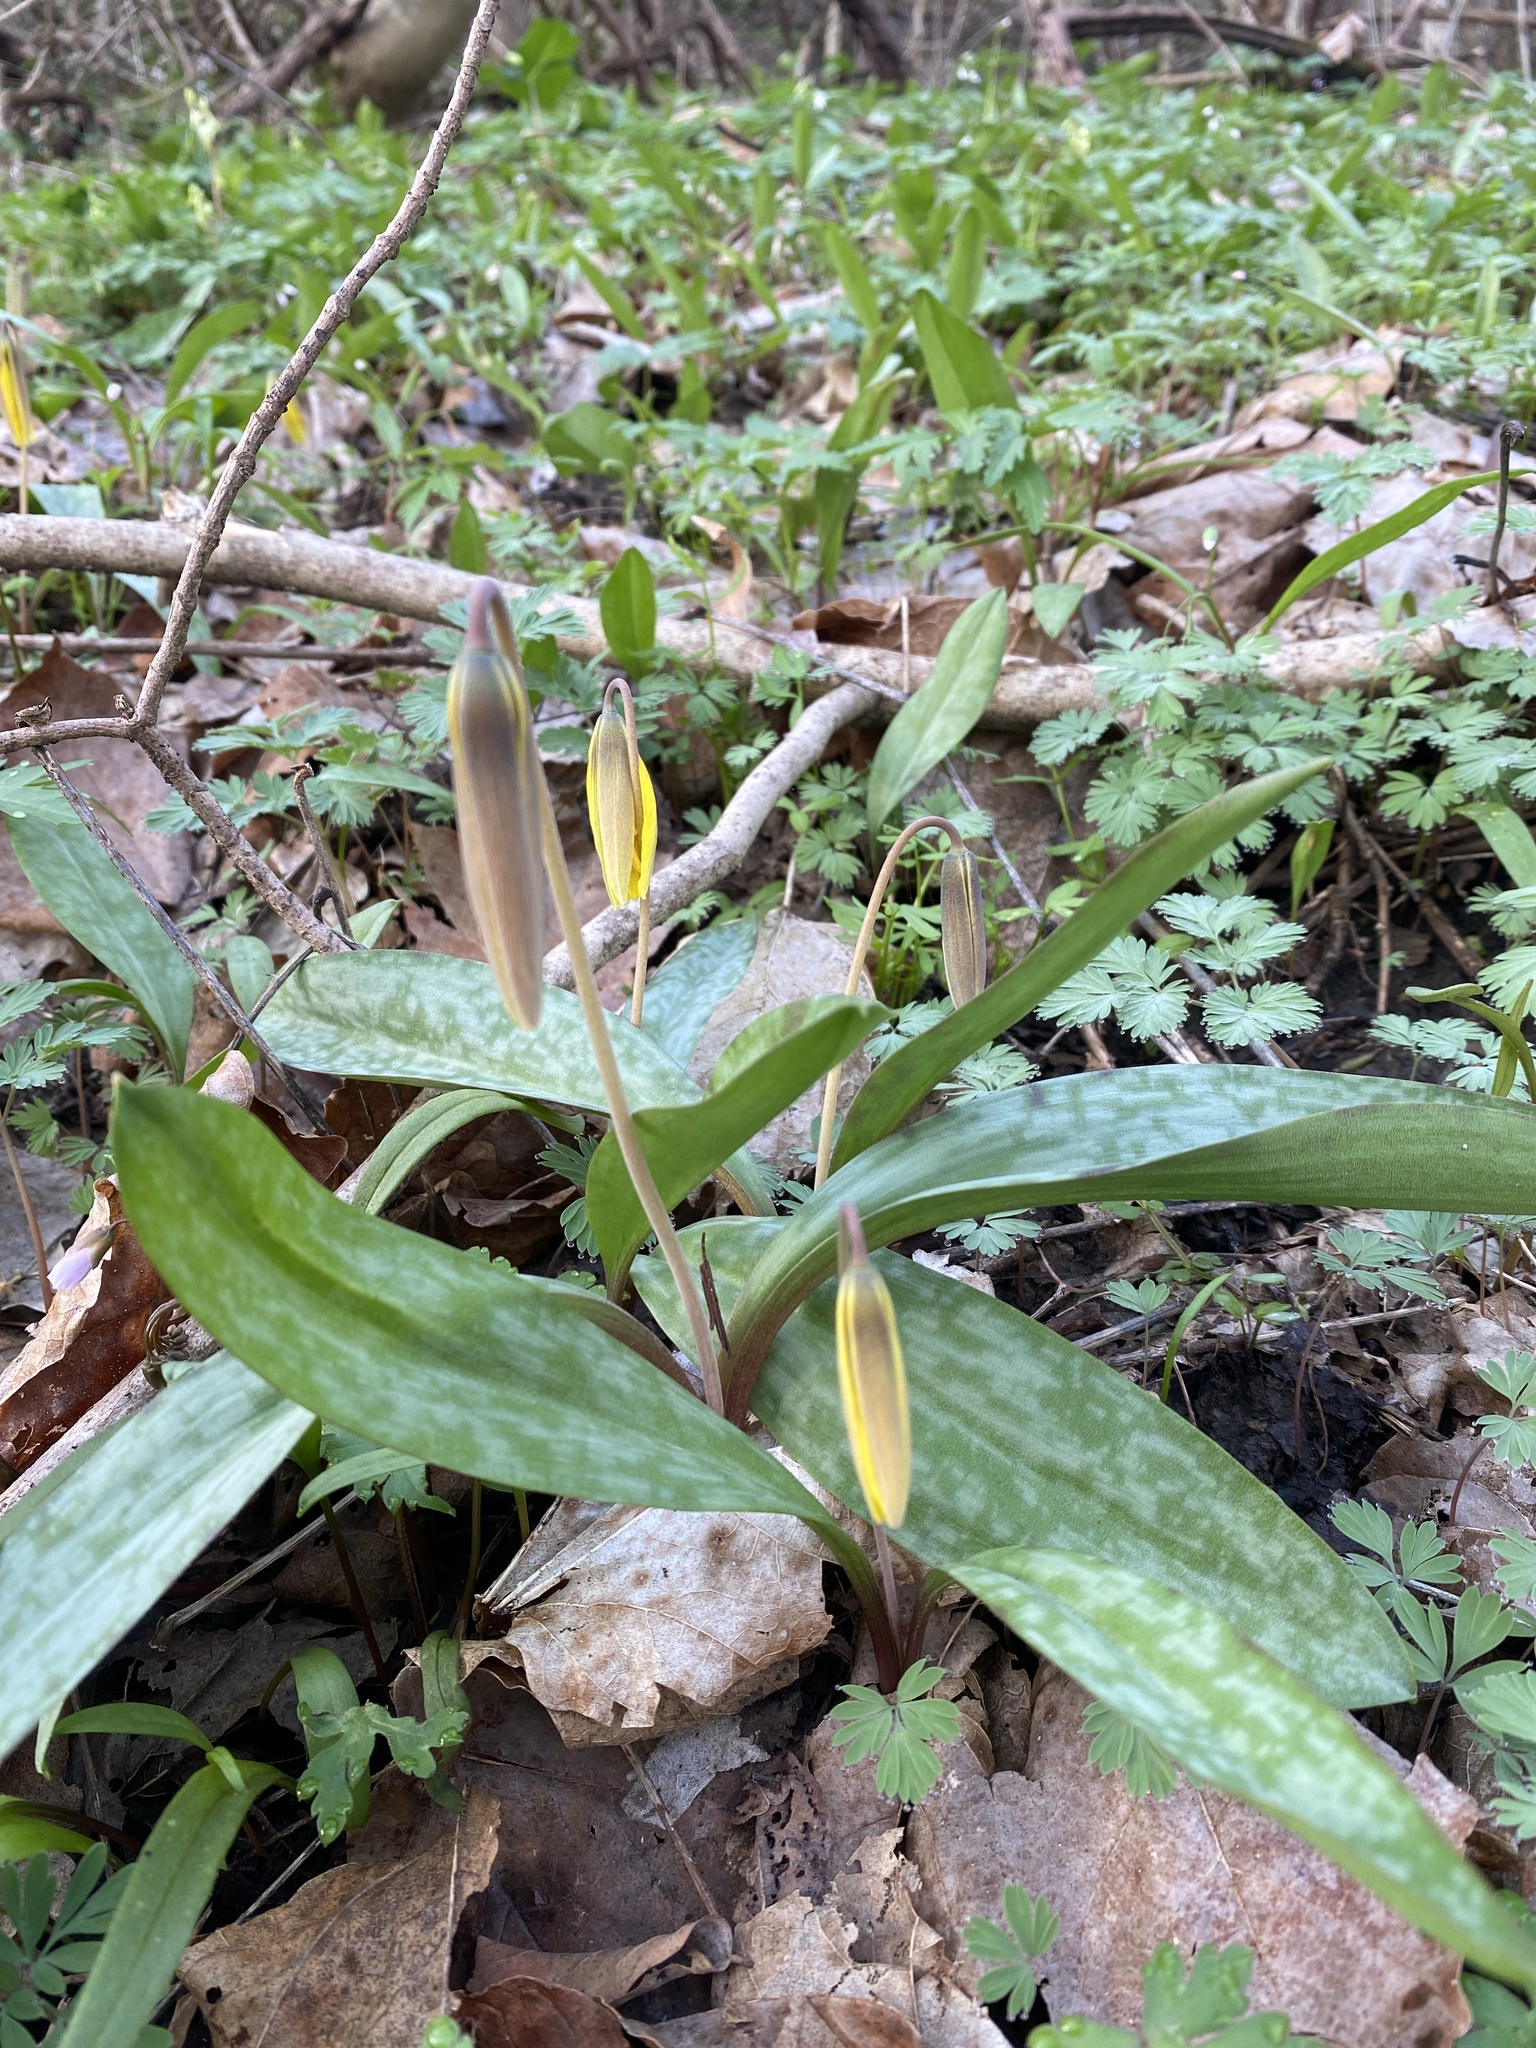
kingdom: Plantae
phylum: Tracheophyta
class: Liliopsida
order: Liliales
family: Liliaceae
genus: Erythronium
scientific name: Erythronium americanum
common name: Yellow adder's-tongue
